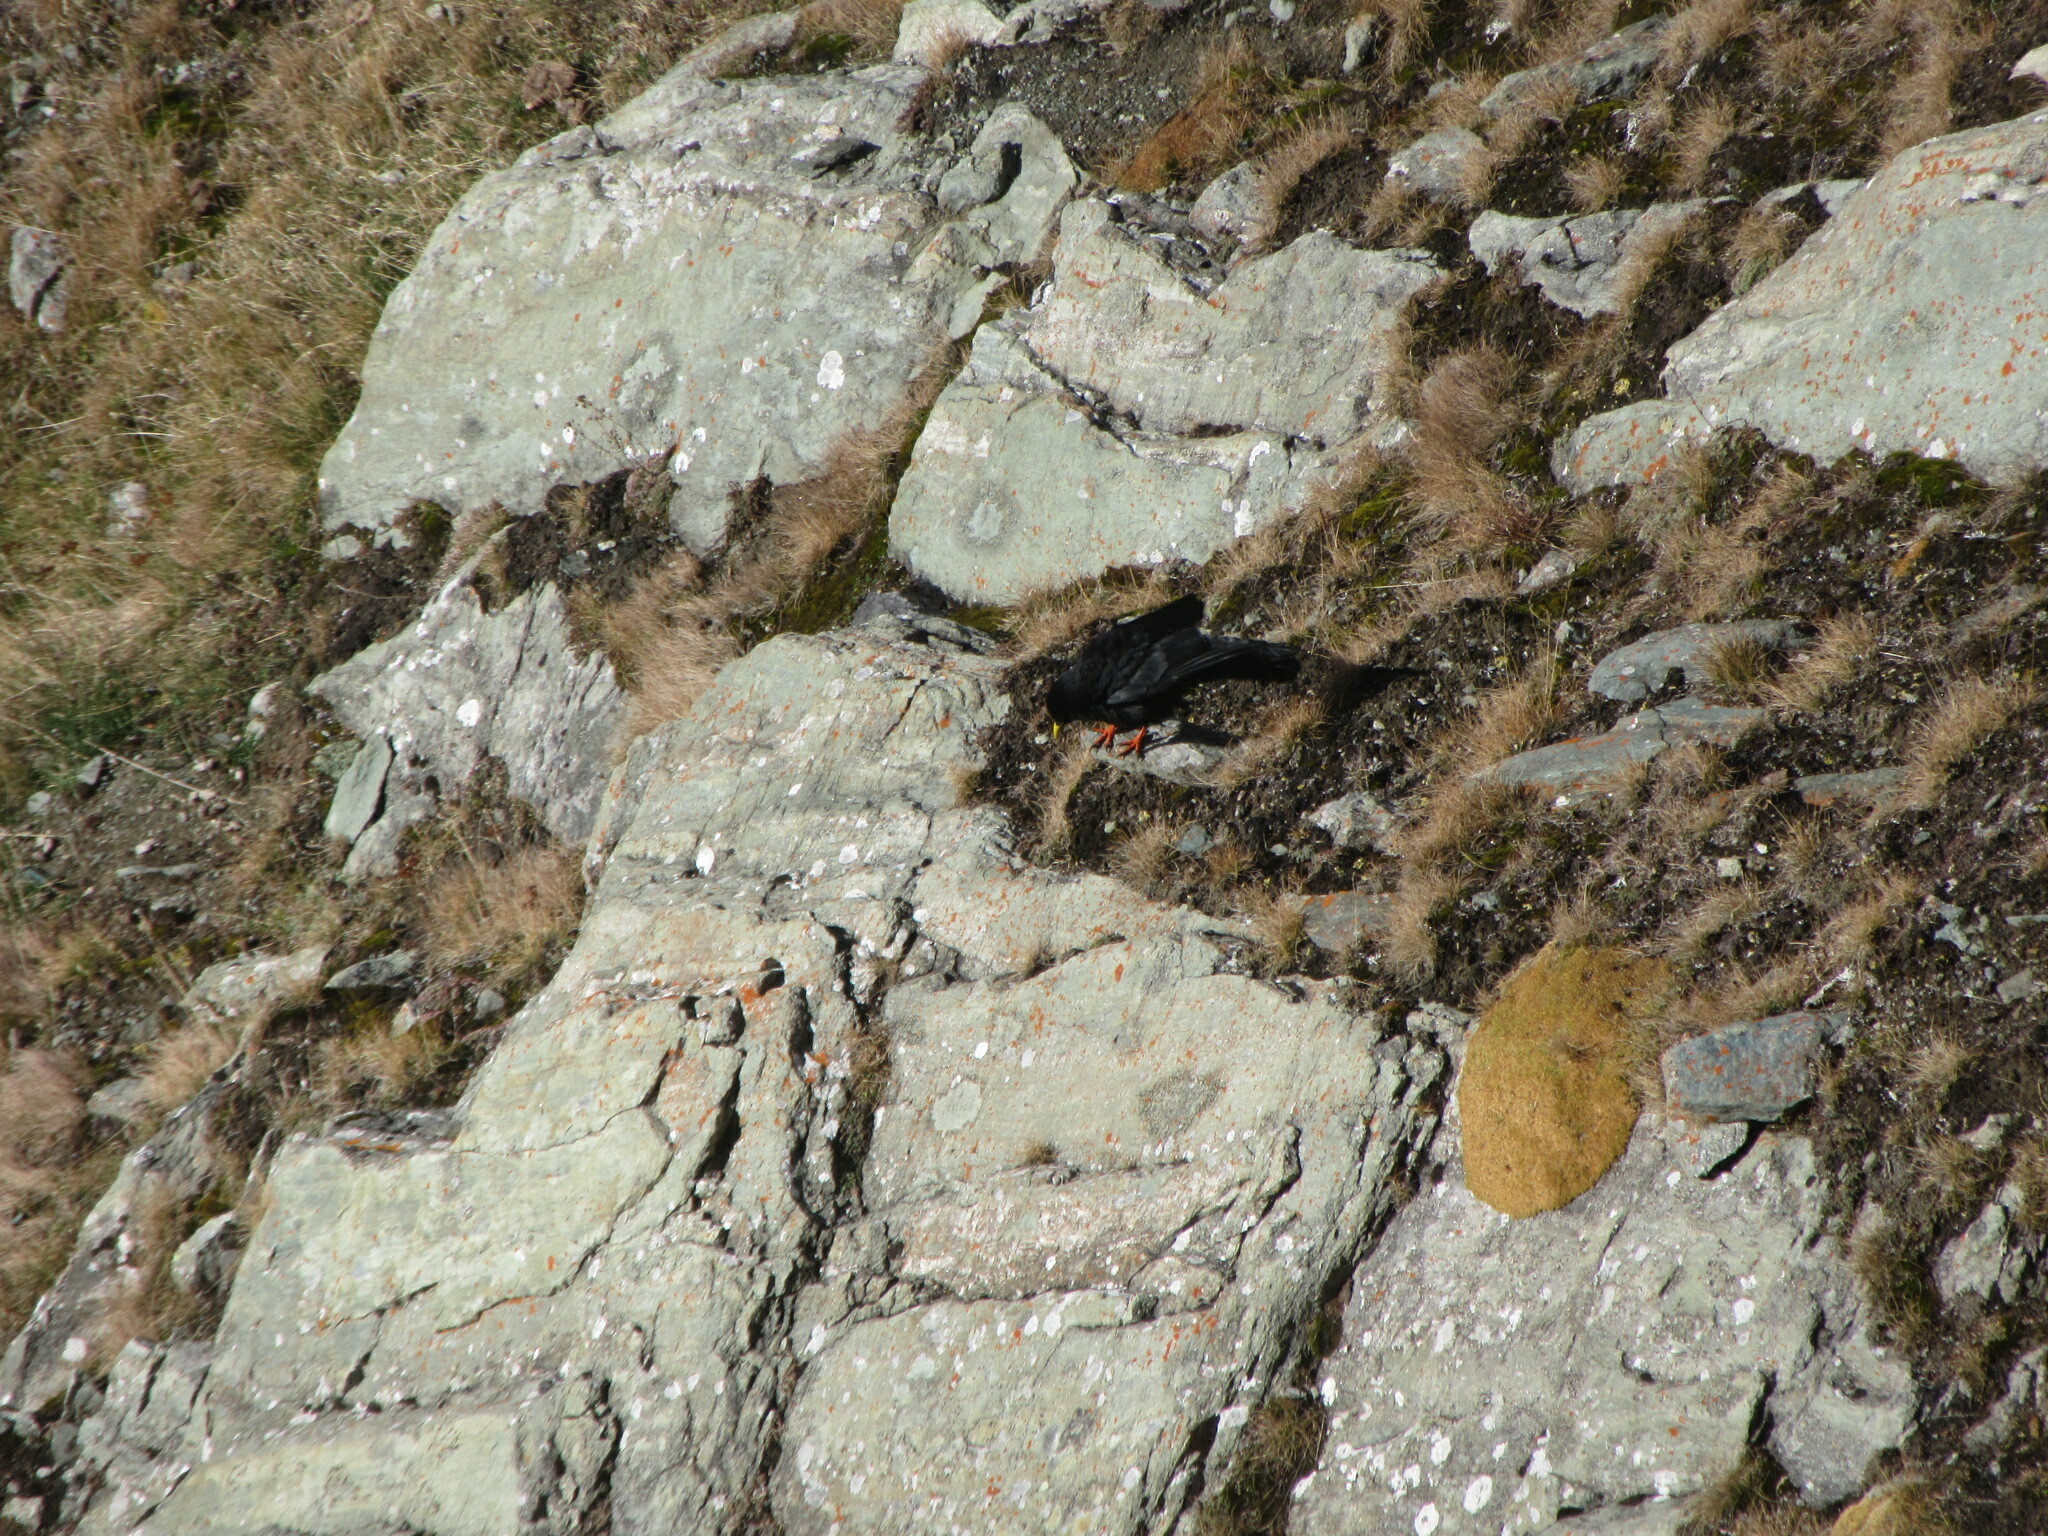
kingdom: Animalia
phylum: Chordata
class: Aves
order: Passeriformes
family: Corvidae
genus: Pyrrhocorax
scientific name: Pyrrhocorax graculus
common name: Alpine chough
